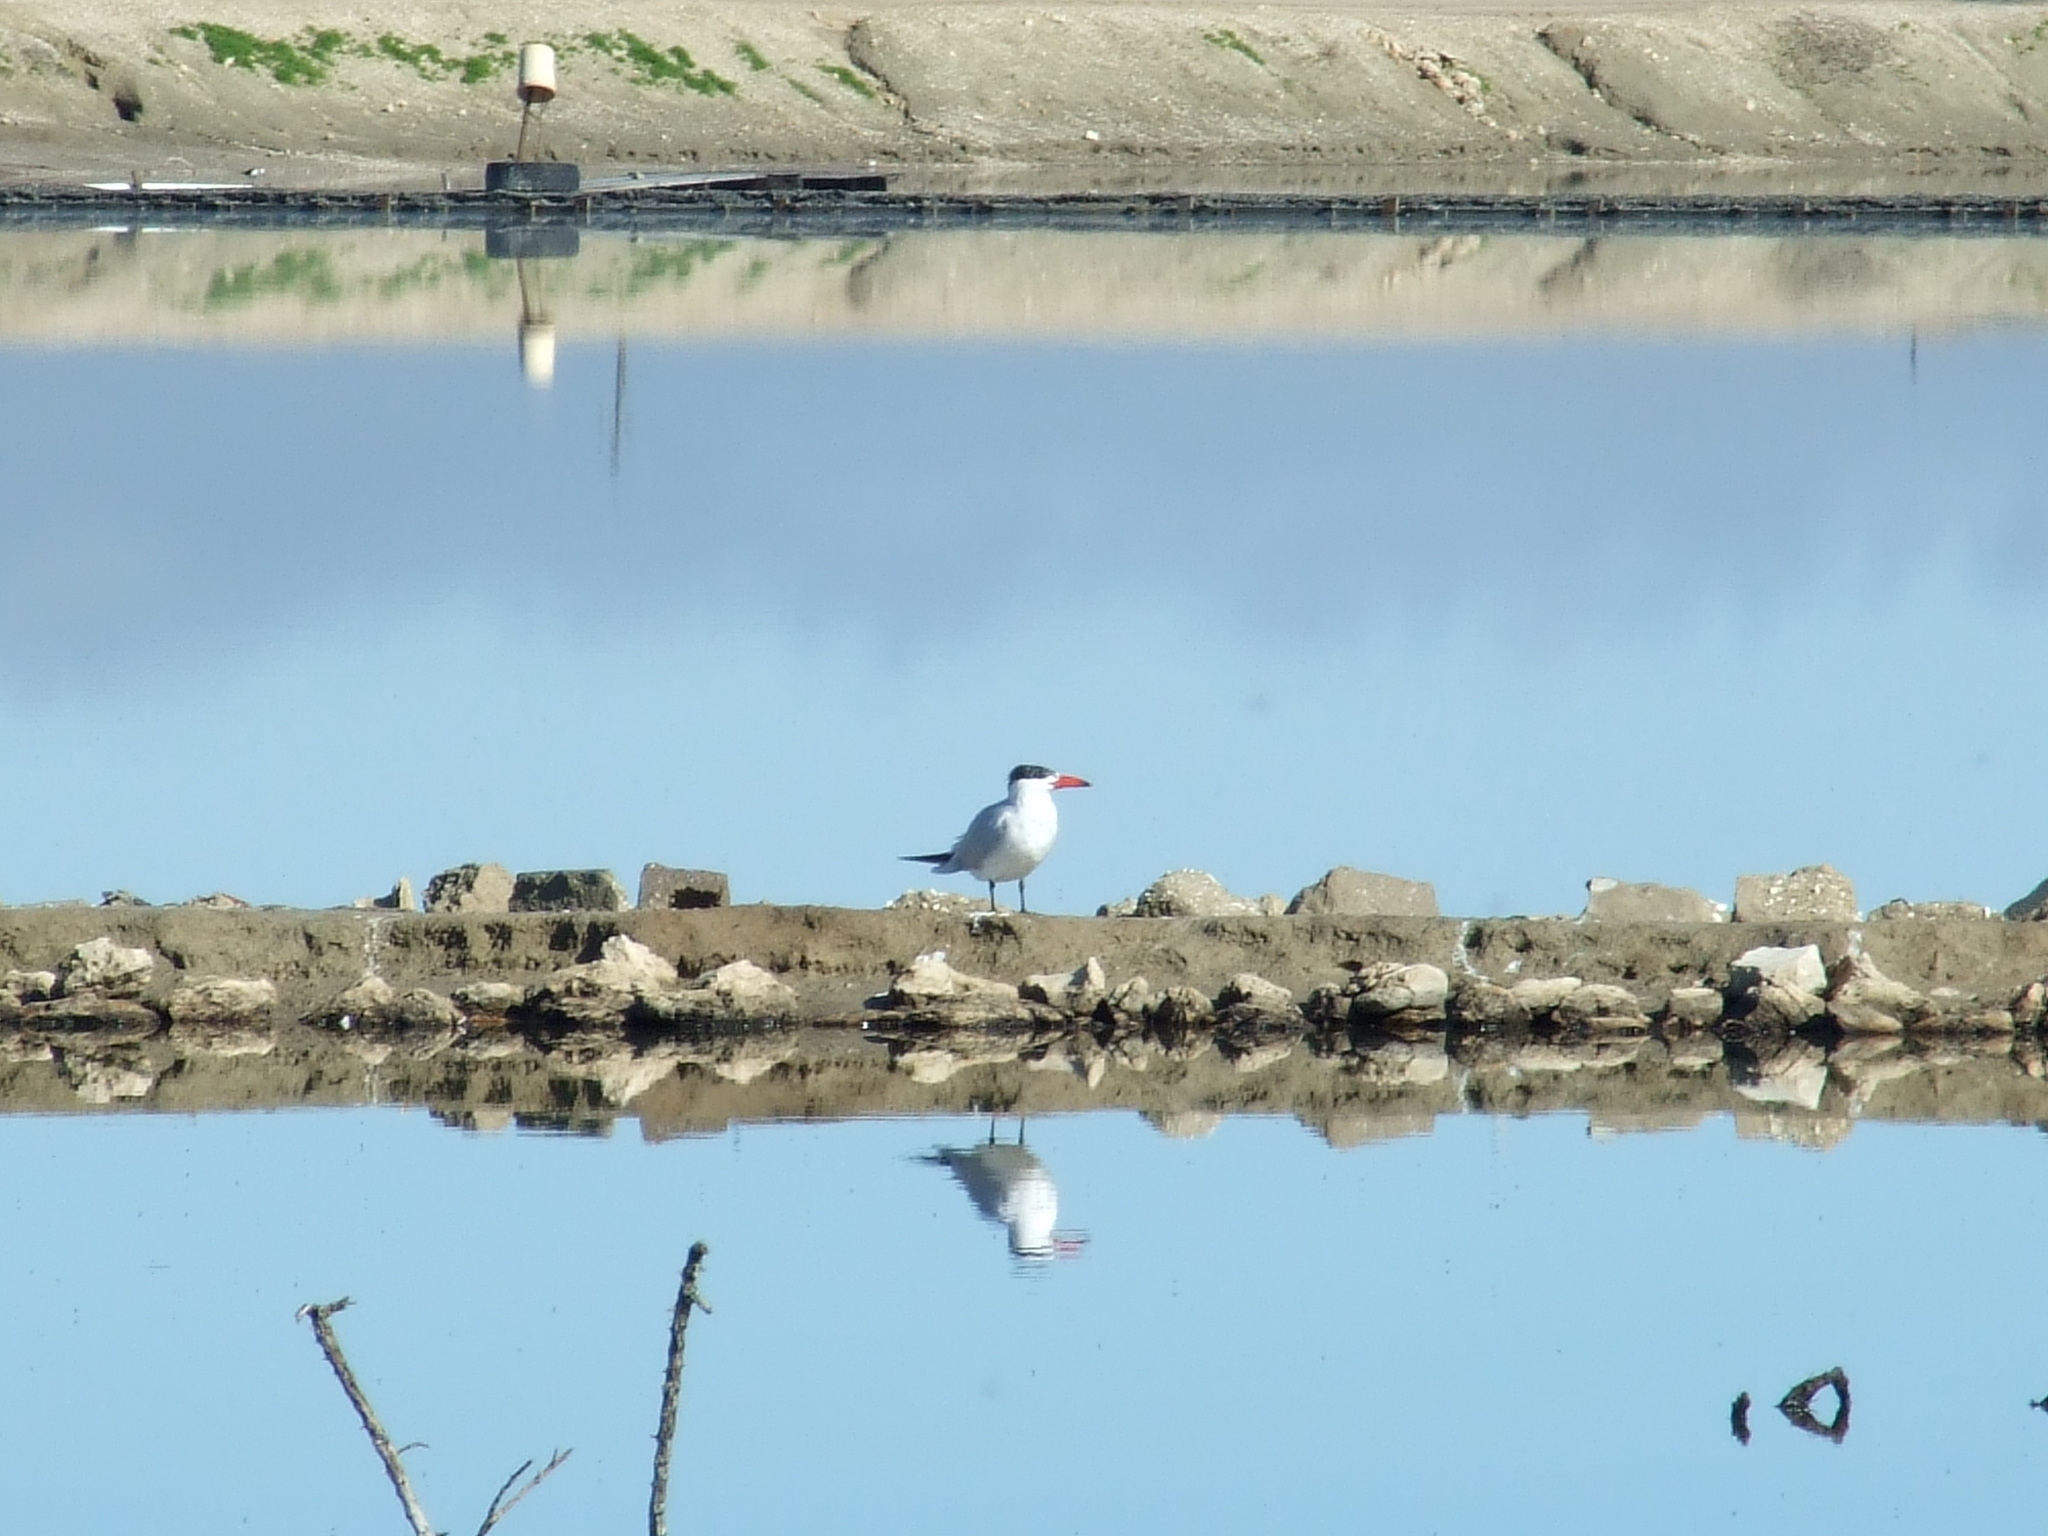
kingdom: Animalia
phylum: Chordata
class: Aves
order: Charadriiformes
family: Laridae
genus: Hydroprogne
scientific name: Hydroprogne caspia
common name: Caspian tern
